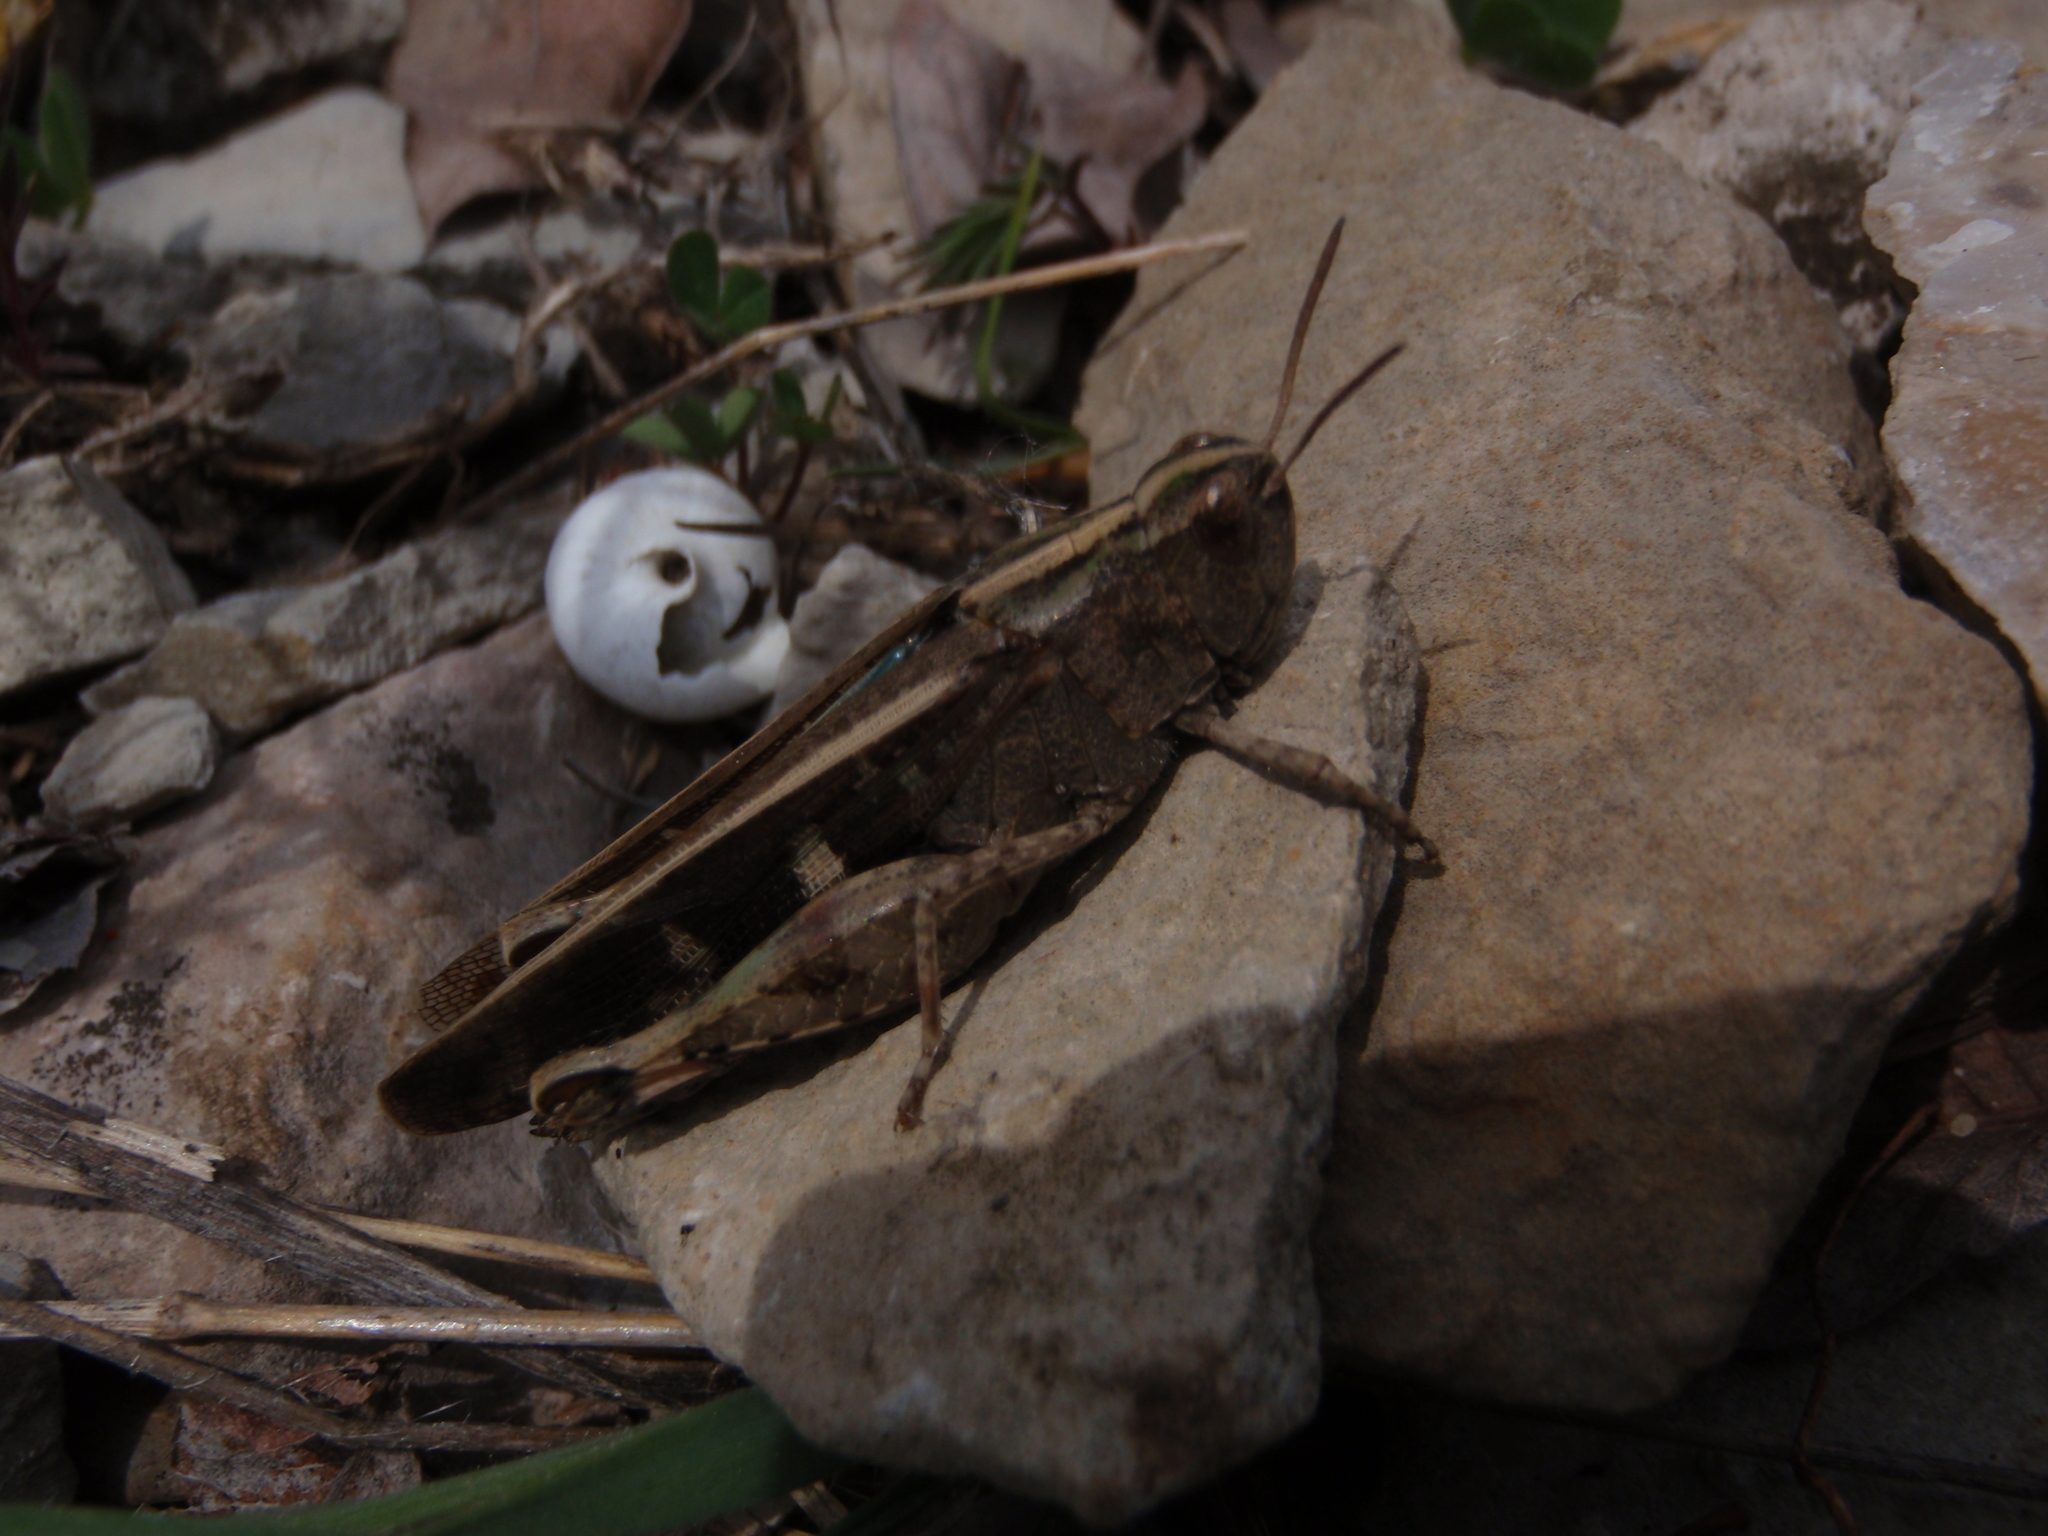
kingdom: Animalia
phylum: Arthropoda
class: Insecta
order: Orthoptera
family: Acrididae
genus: Aiolopus
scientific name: Aiolopus strepens
